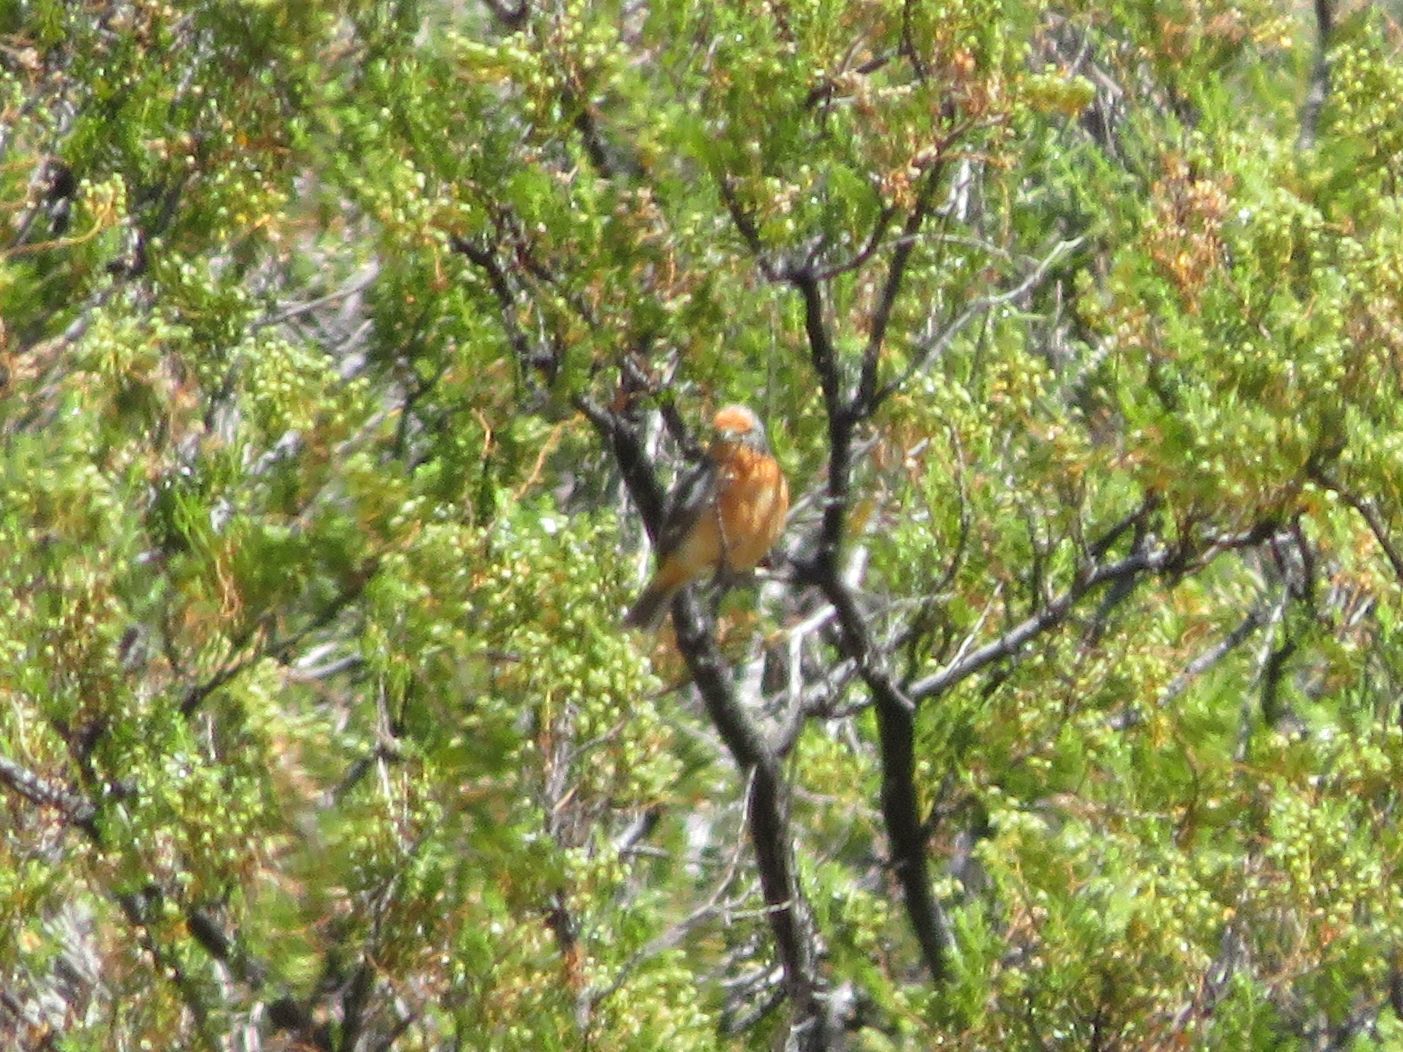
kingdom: Animalia
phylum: Chordata
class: Aves
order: Passeriformes
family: Cotingidae
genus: Phytotoma
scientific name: Phytotoma rutila
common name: White-tipped plantcutter
